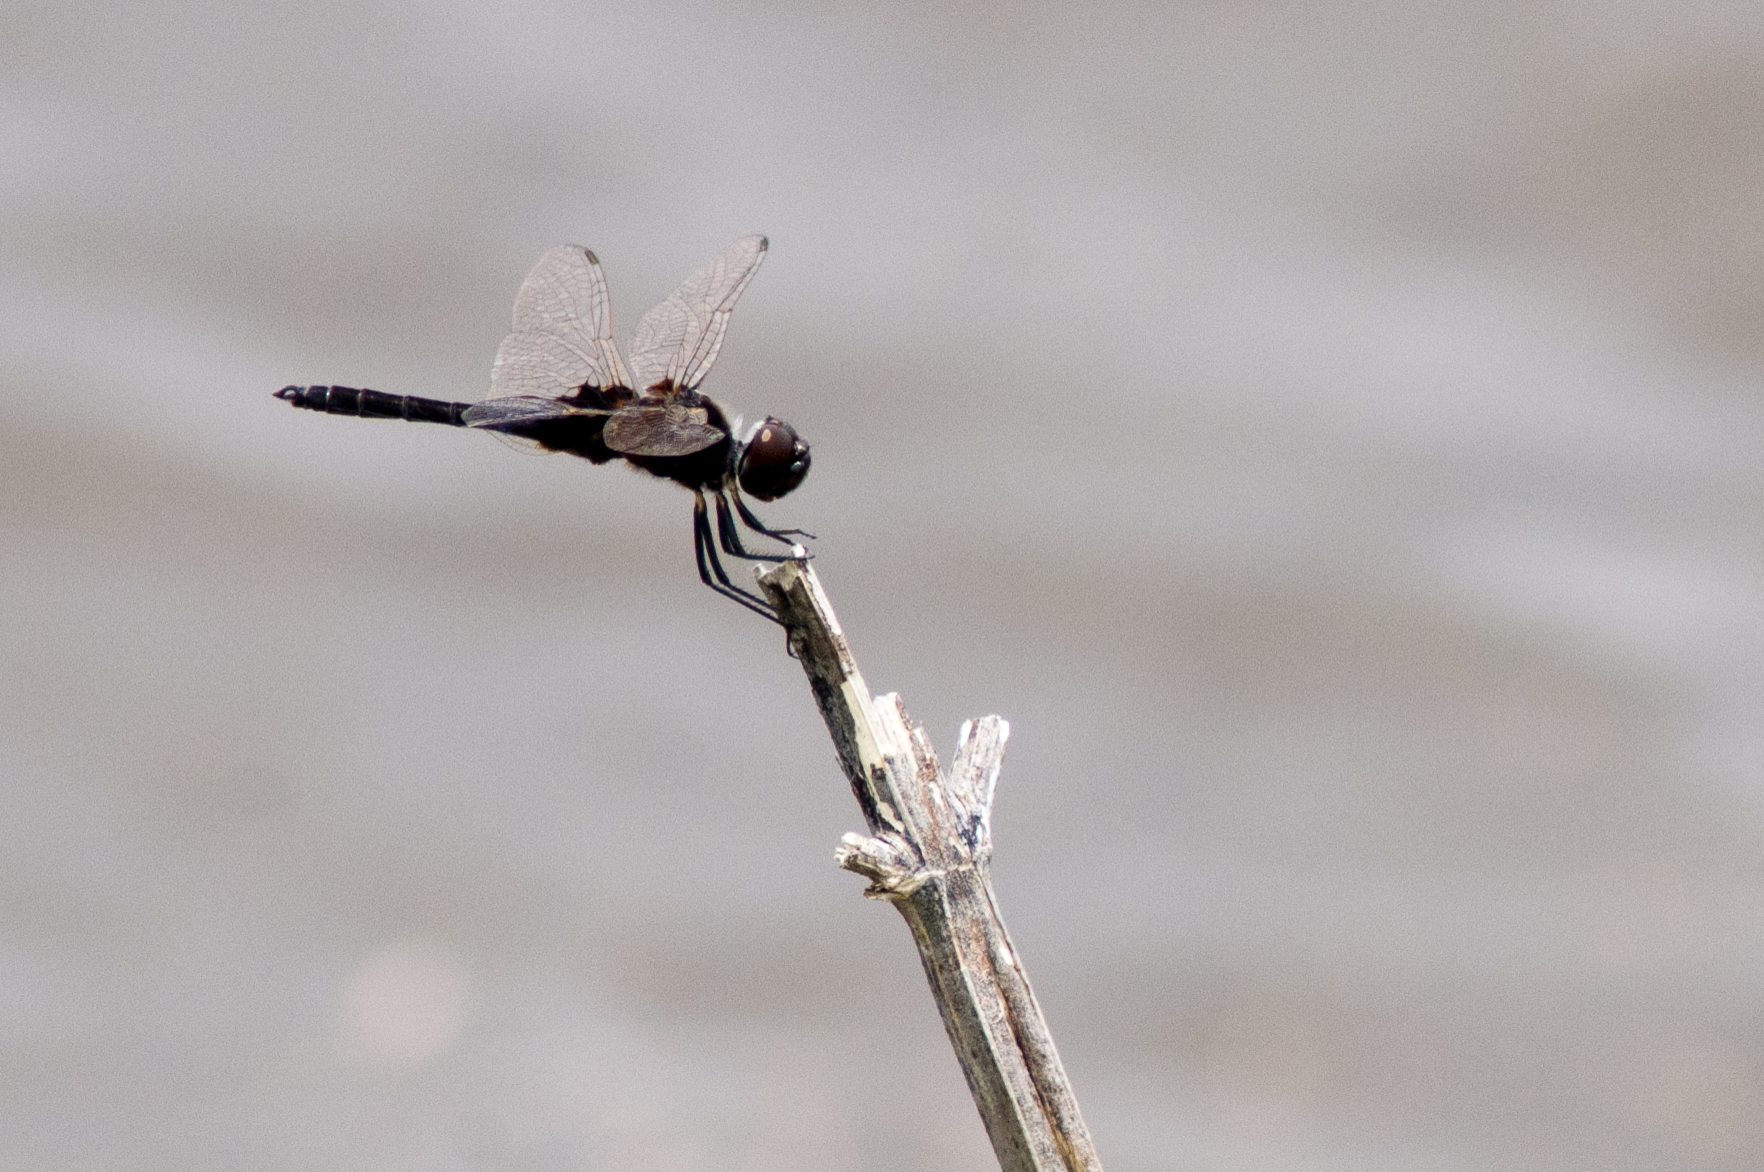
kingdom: Animalia
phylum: Arthropoda
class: Insecta
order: Odonata
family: Libellulidae
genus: Macrodiplax
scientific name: Macrodiplax balteata
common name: Marl pennant
